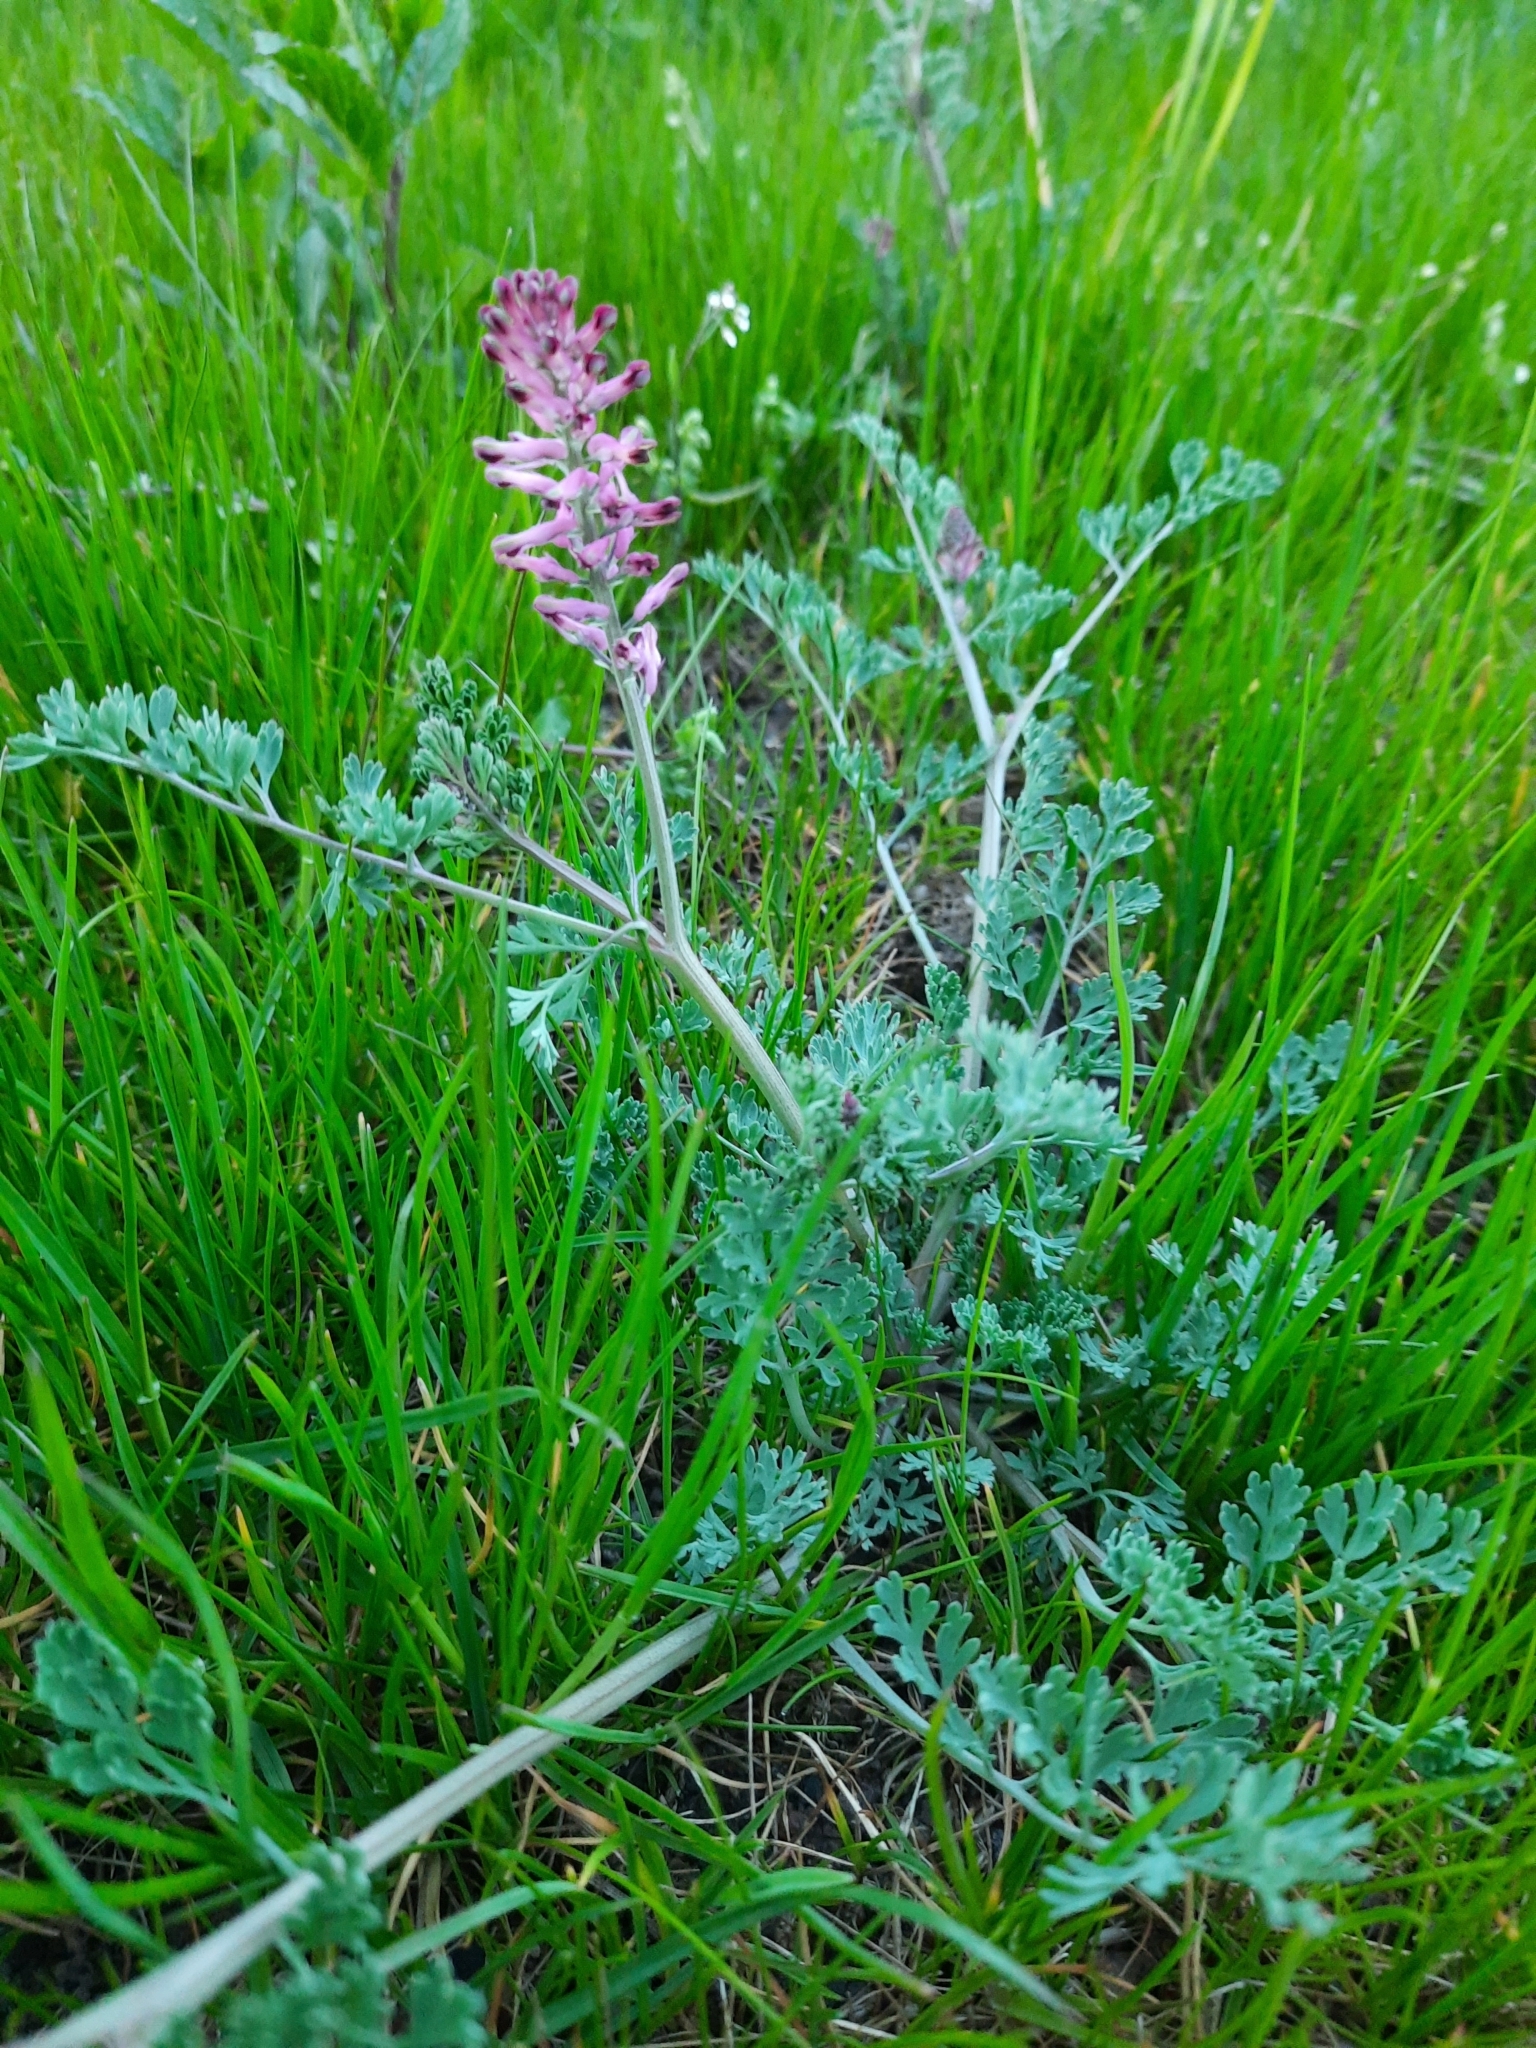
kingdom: Plantae
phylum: Tracheophyta
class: Magnoliopsida
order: Ranunculales
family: Papaveraceae
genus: Fumaria
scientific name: Fumaria officinalis
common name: Common fumitory
